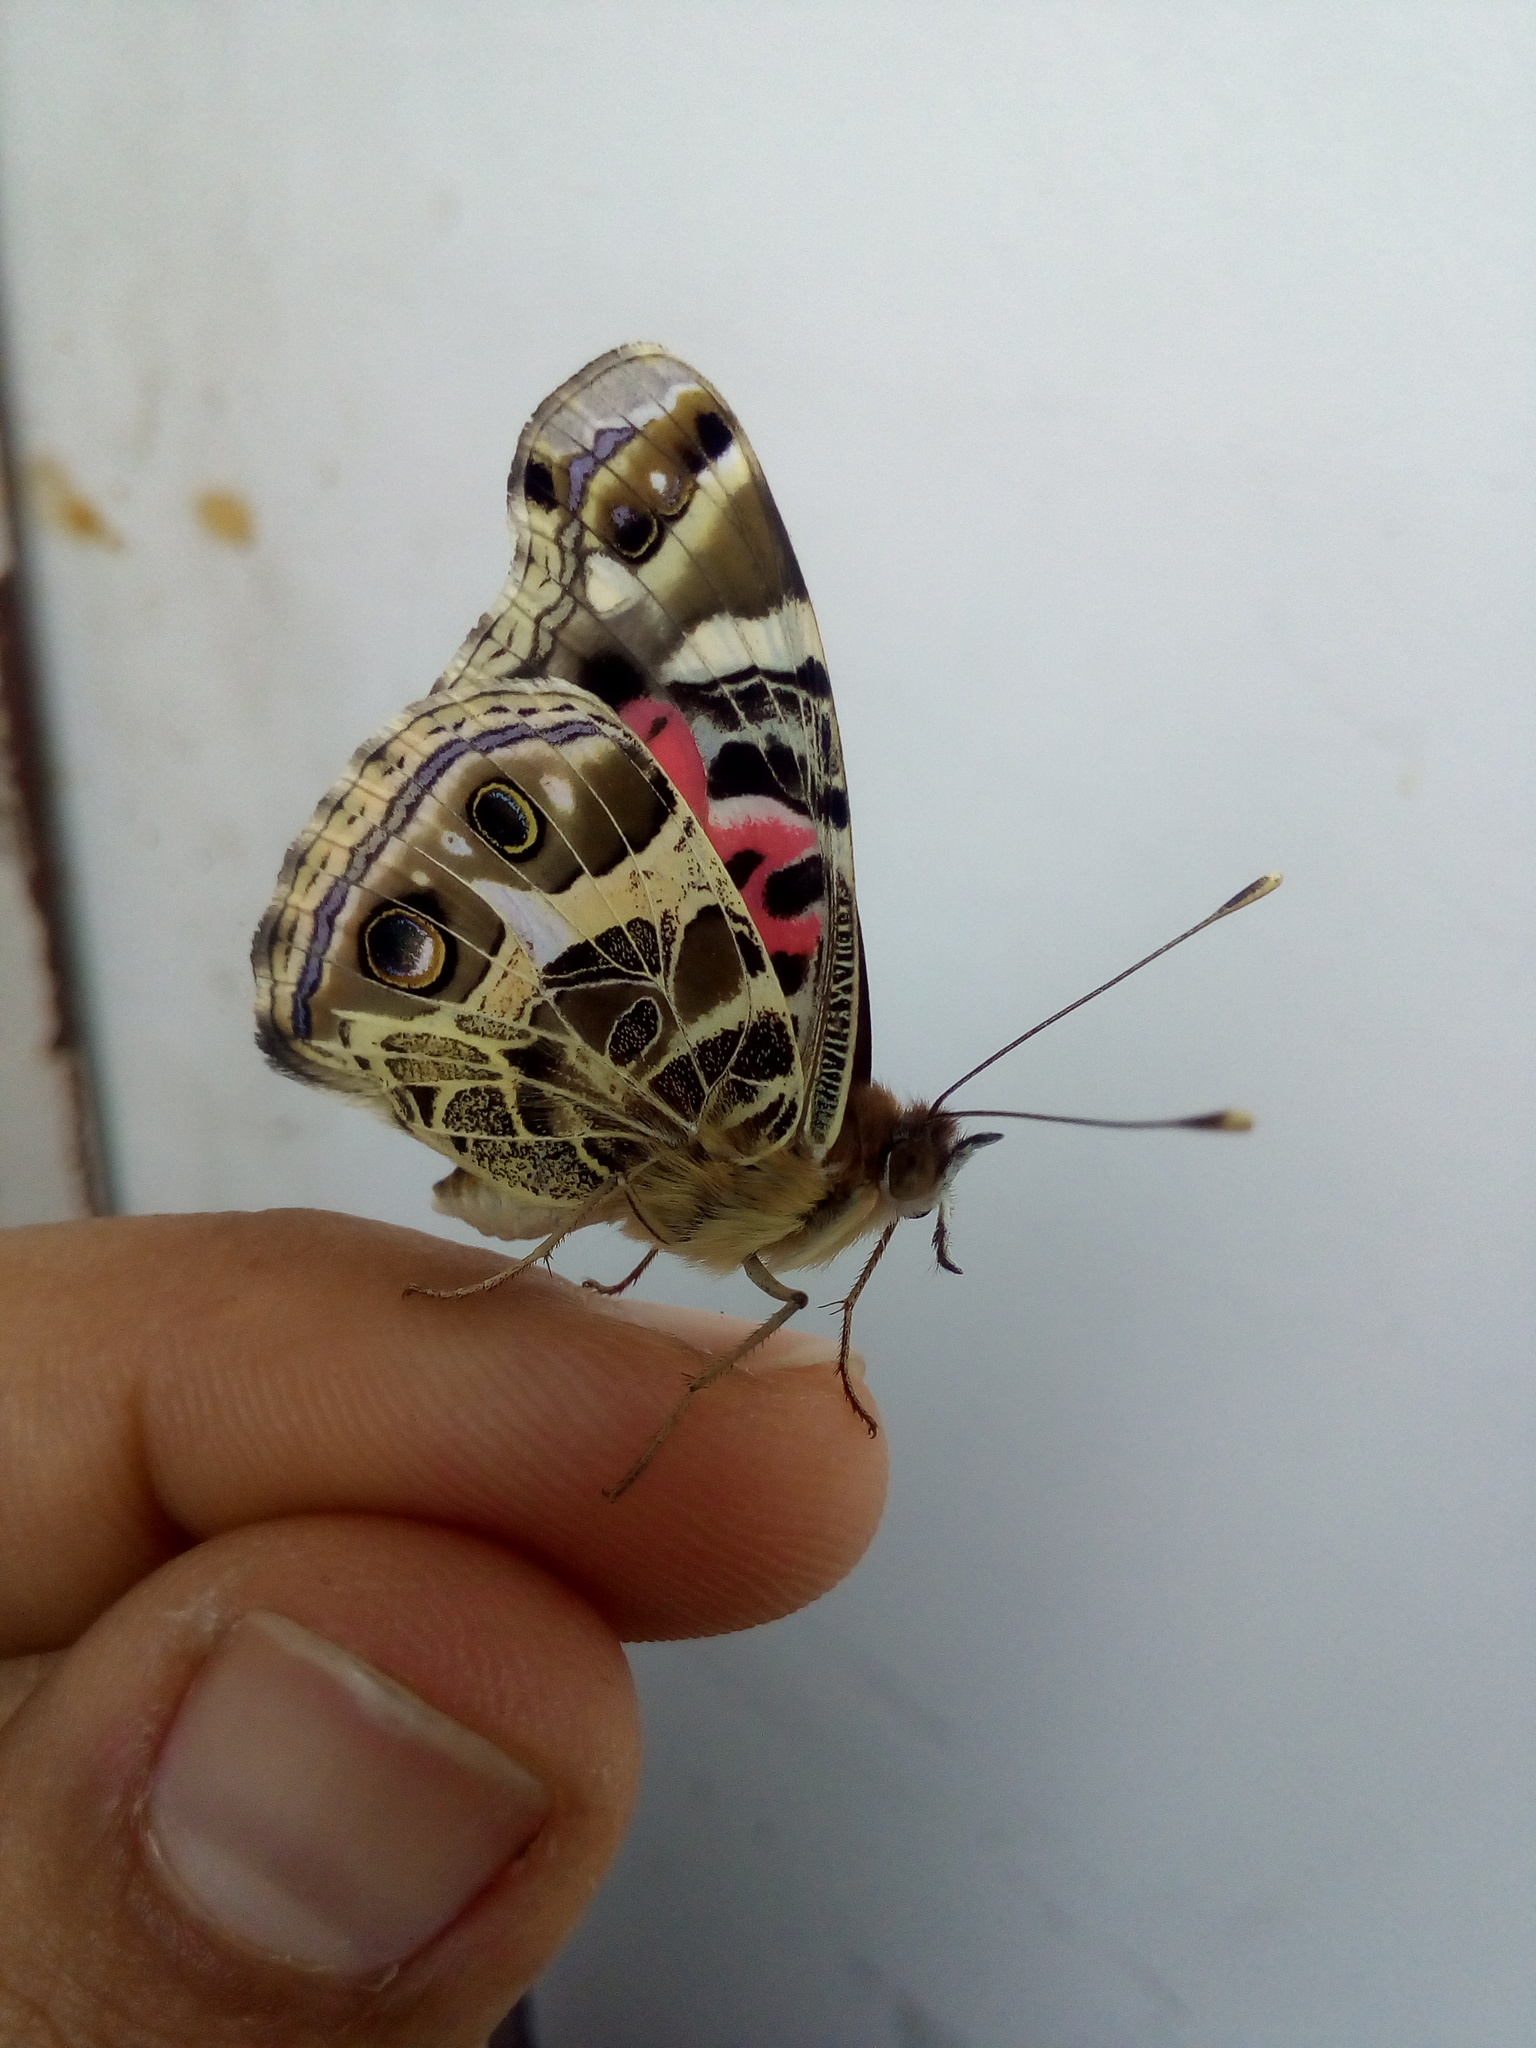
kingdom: Animalia
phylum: Arthropoda
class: Insecta
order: Lepidoptera
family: Nymphalidae
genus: Vanessa
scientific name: Vanessa braziliensis
